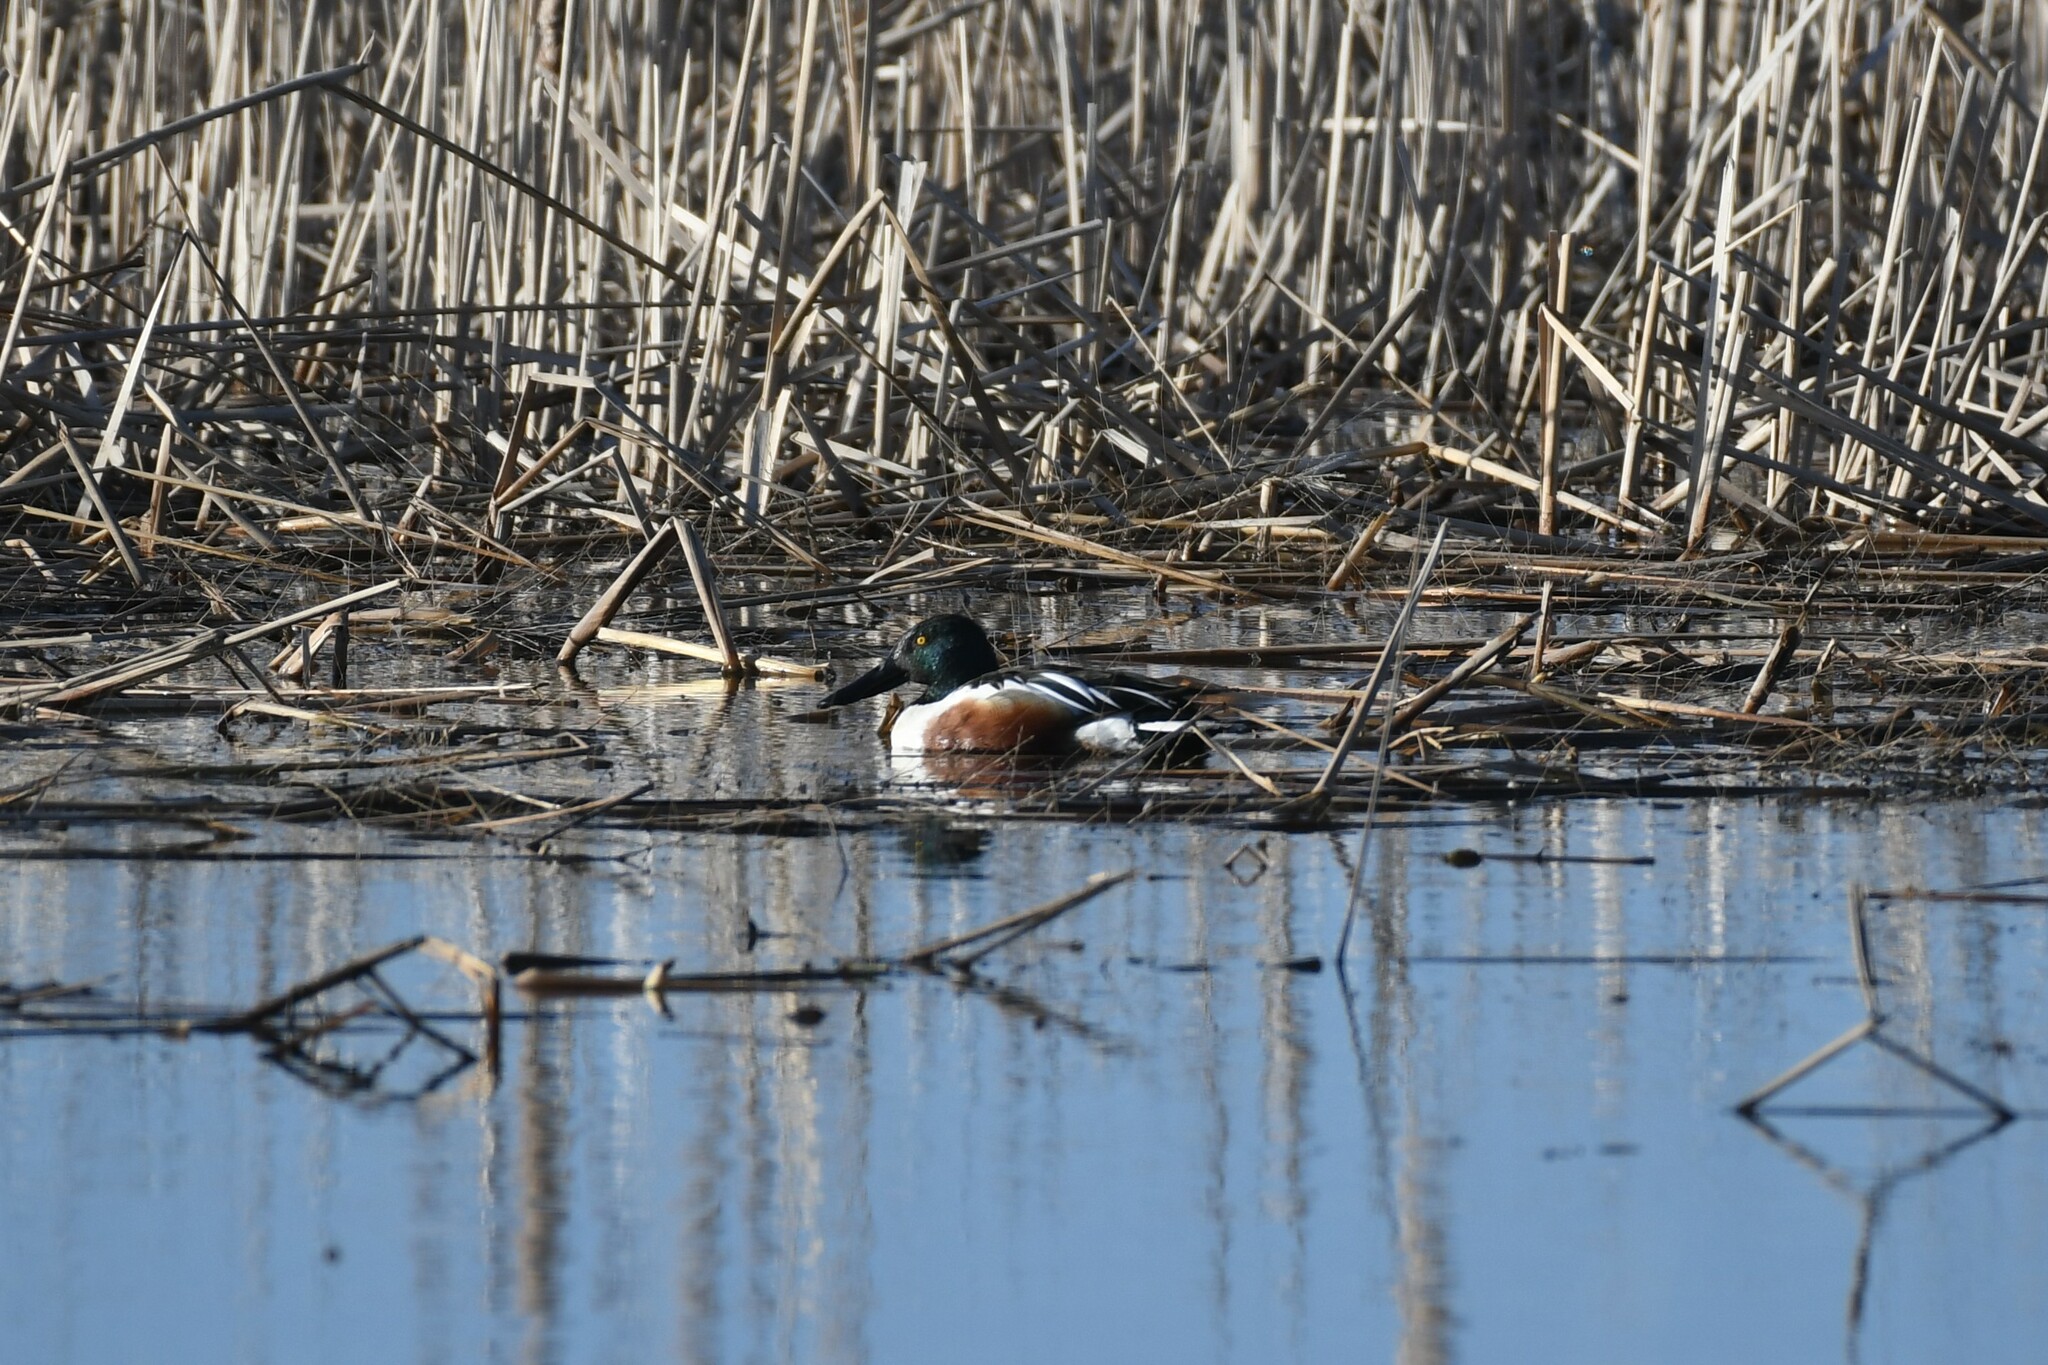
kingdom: Animalia
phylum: Chordata
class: Aves
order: Anseriformes
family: Anatidae
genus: Spatula
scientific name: Spatula clypeata
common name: Northern shoveler
